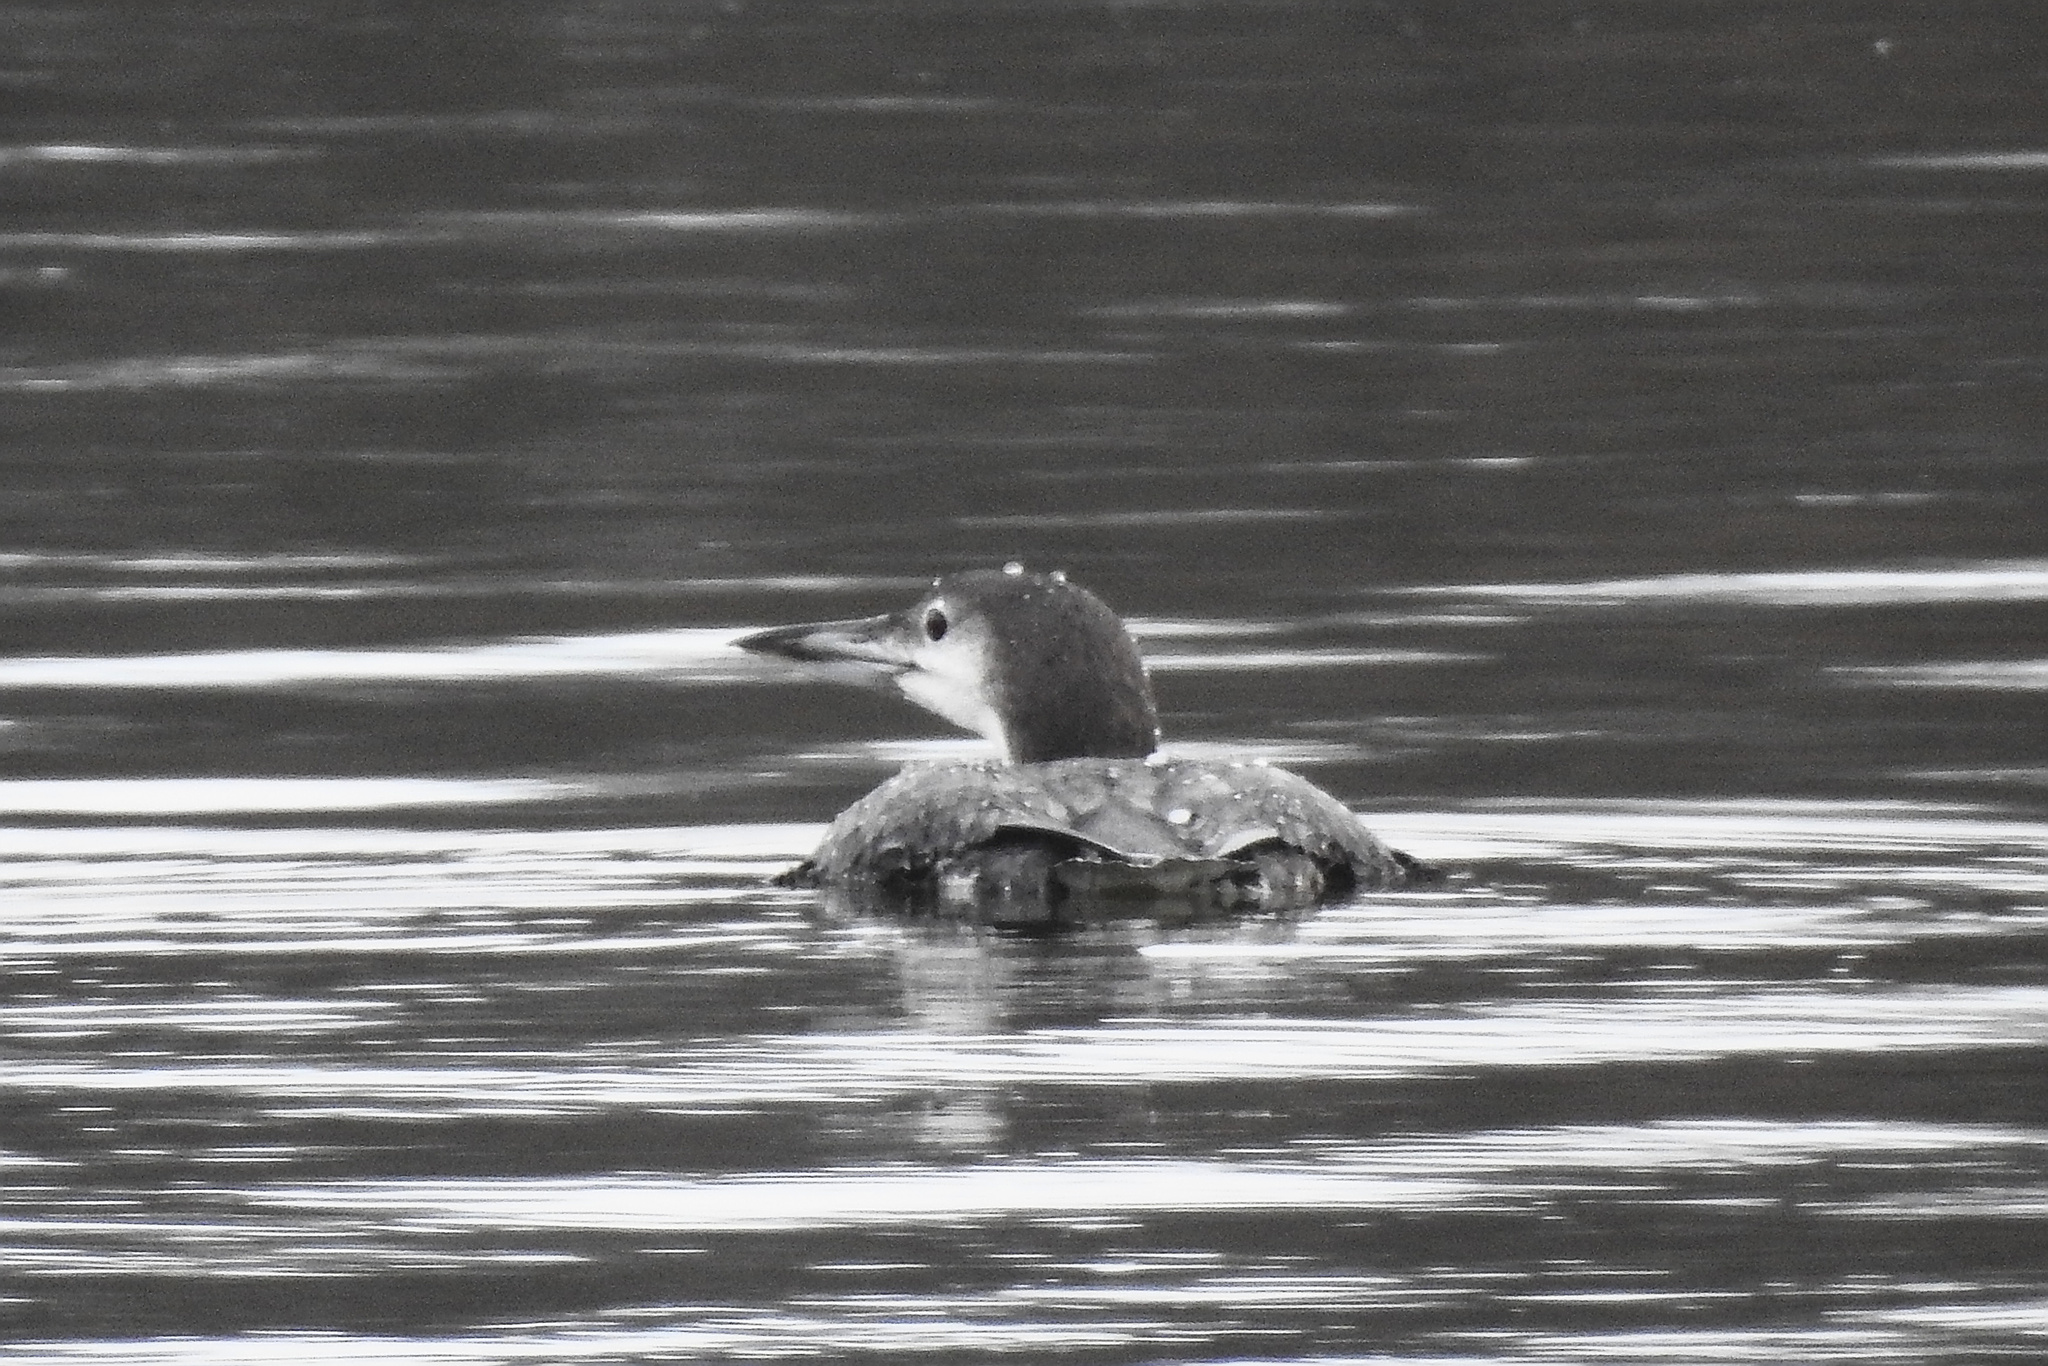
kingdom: Animalia
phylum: Chordata
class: Aves
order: Gaviiformes
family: Gaviidae
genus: Gavia
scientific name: Gavia immer
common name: Common loon
